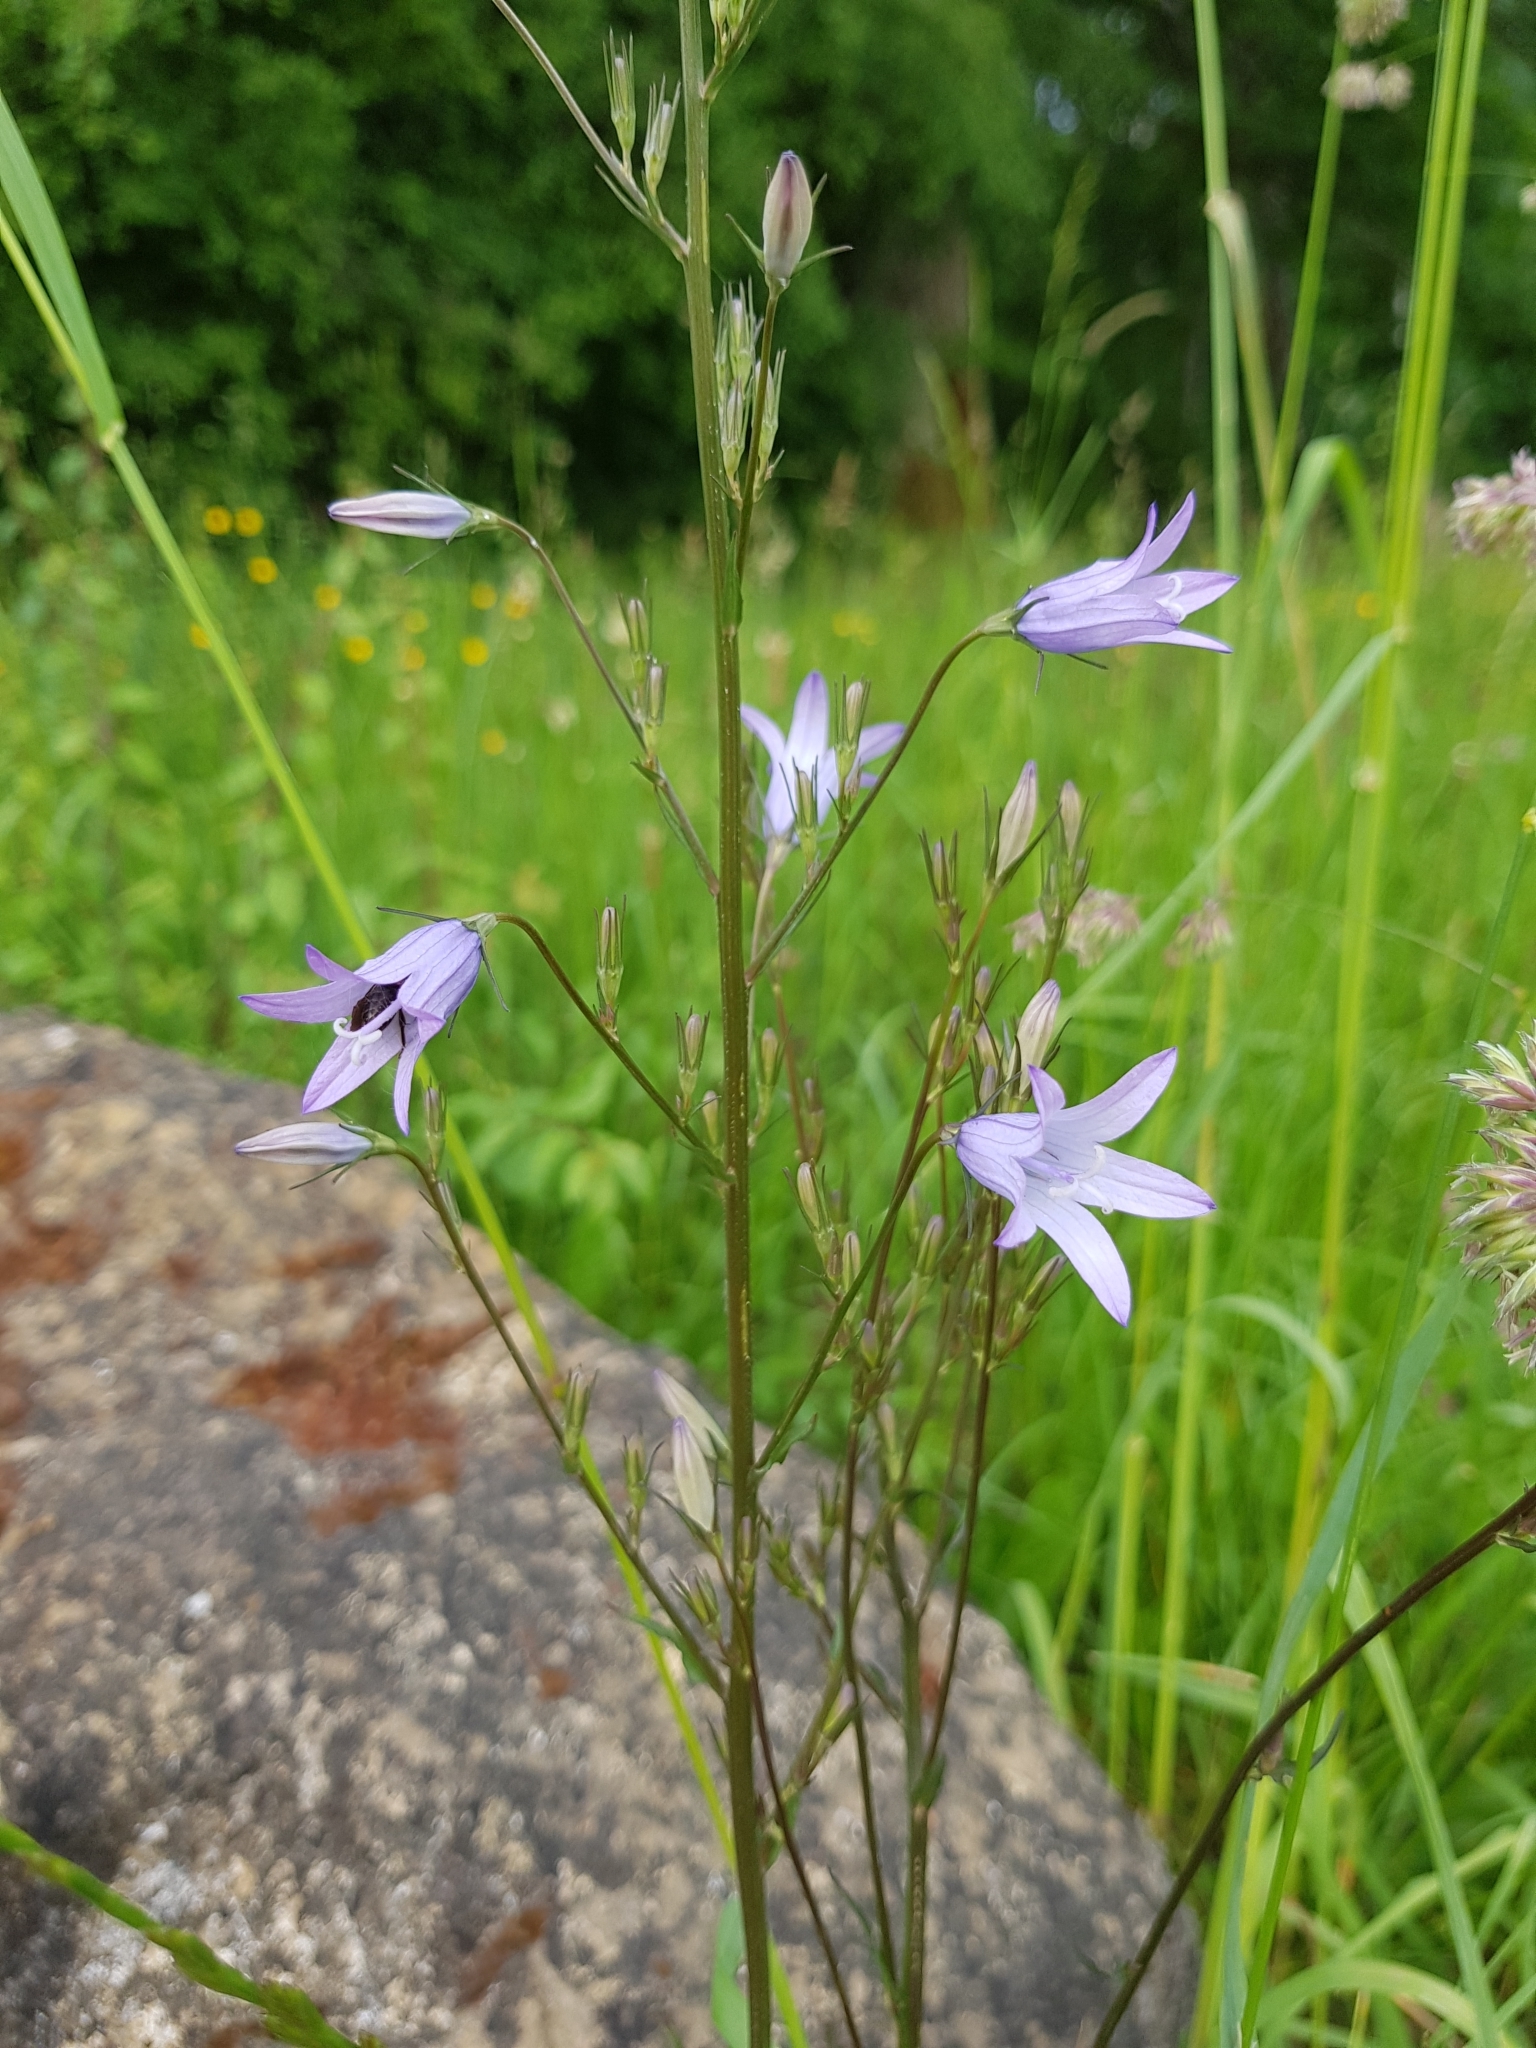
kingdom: Plantae
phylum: Tracheophyta
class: Magnoliopsida
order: Asterales
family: Campanulaceae
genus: Campanula
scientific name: Campanula rapunculus
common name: Rampion bellflower
